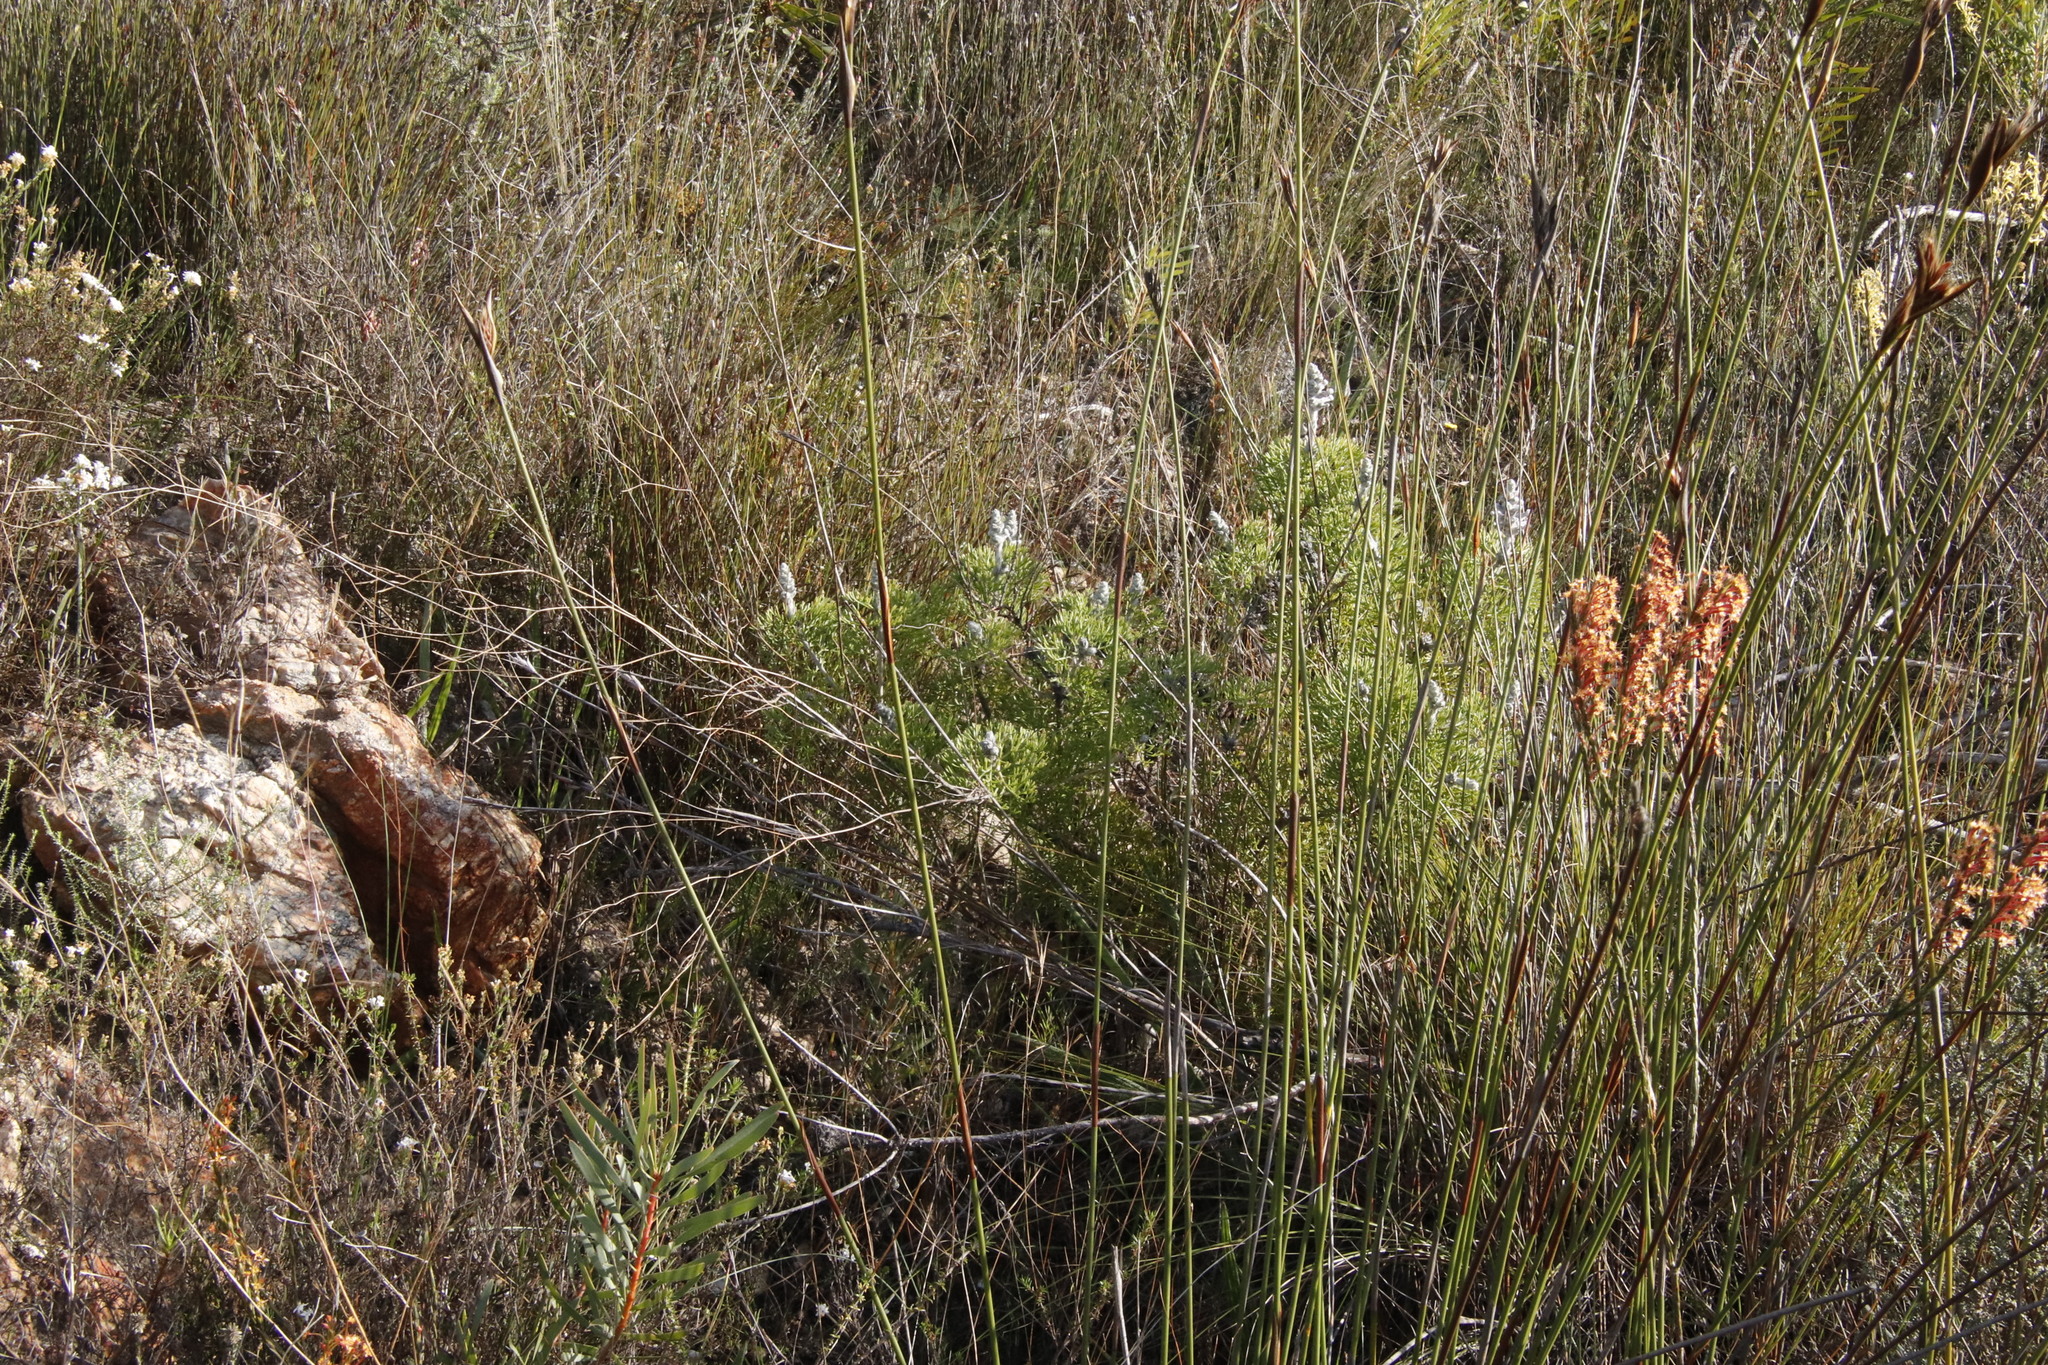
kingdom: Plantae
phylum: Tracheophyta
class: Magnoliopsida
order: Proteales
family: Proteaceae
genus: Paranomus
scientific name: Paranomus bolusii
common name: Overberg sceptre
